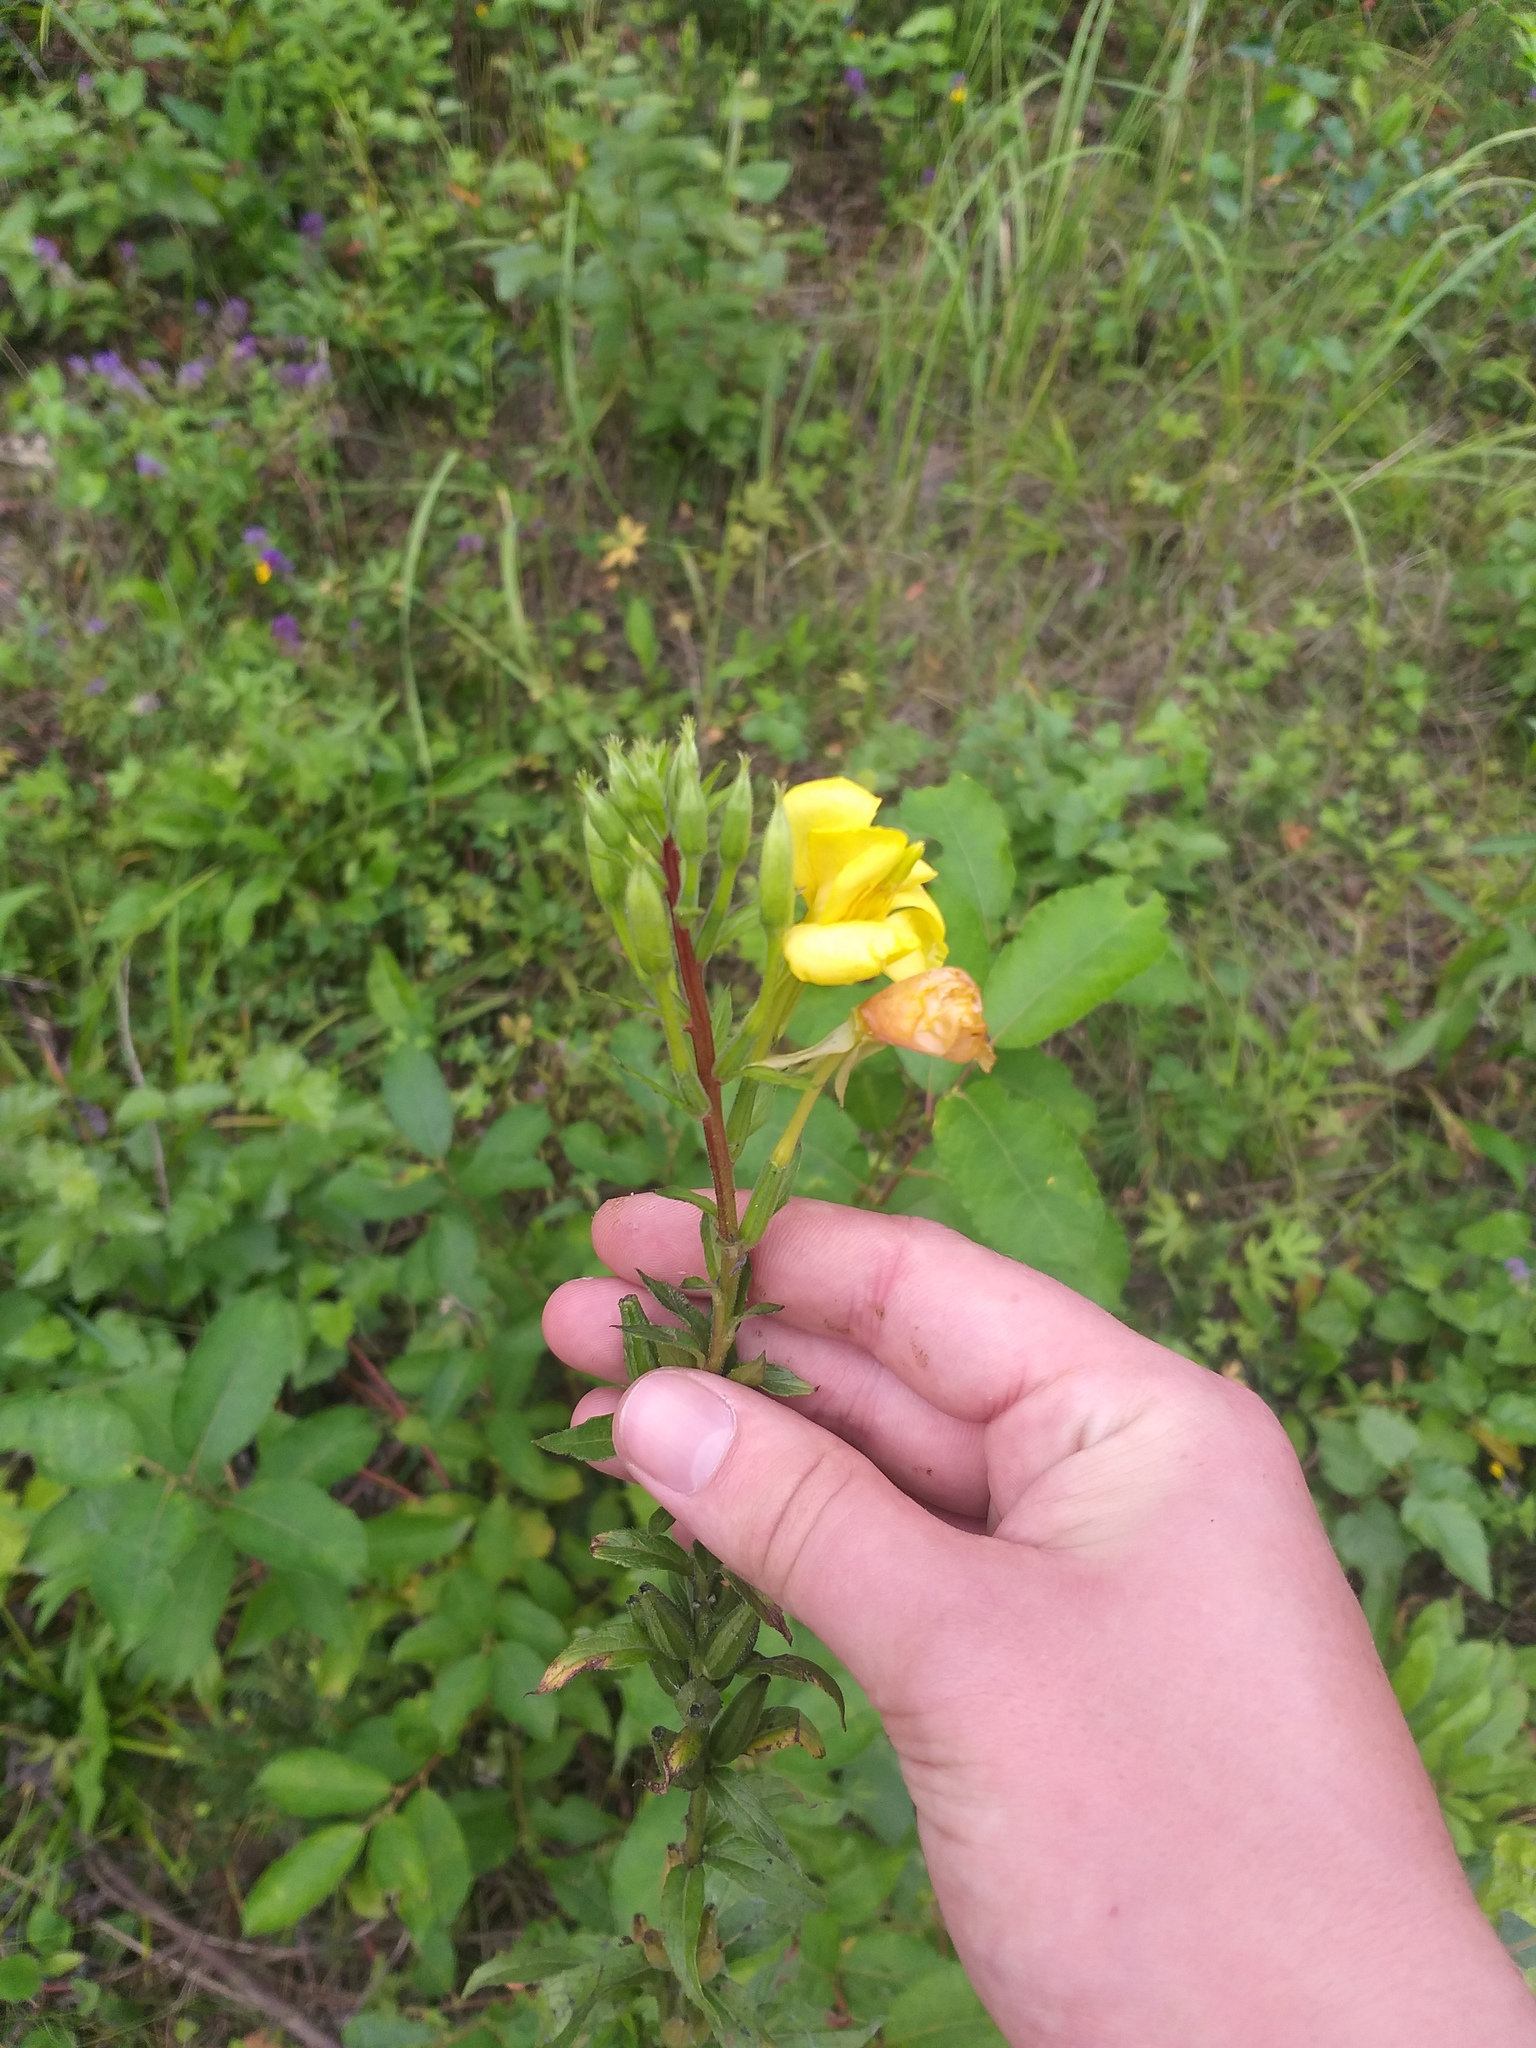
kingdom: Plantae
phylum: Tracheophyta
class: Magnoliopsida
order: Myrtales
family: Onagraceae
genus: Oenothera
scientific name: Oenothera rubricaulis
